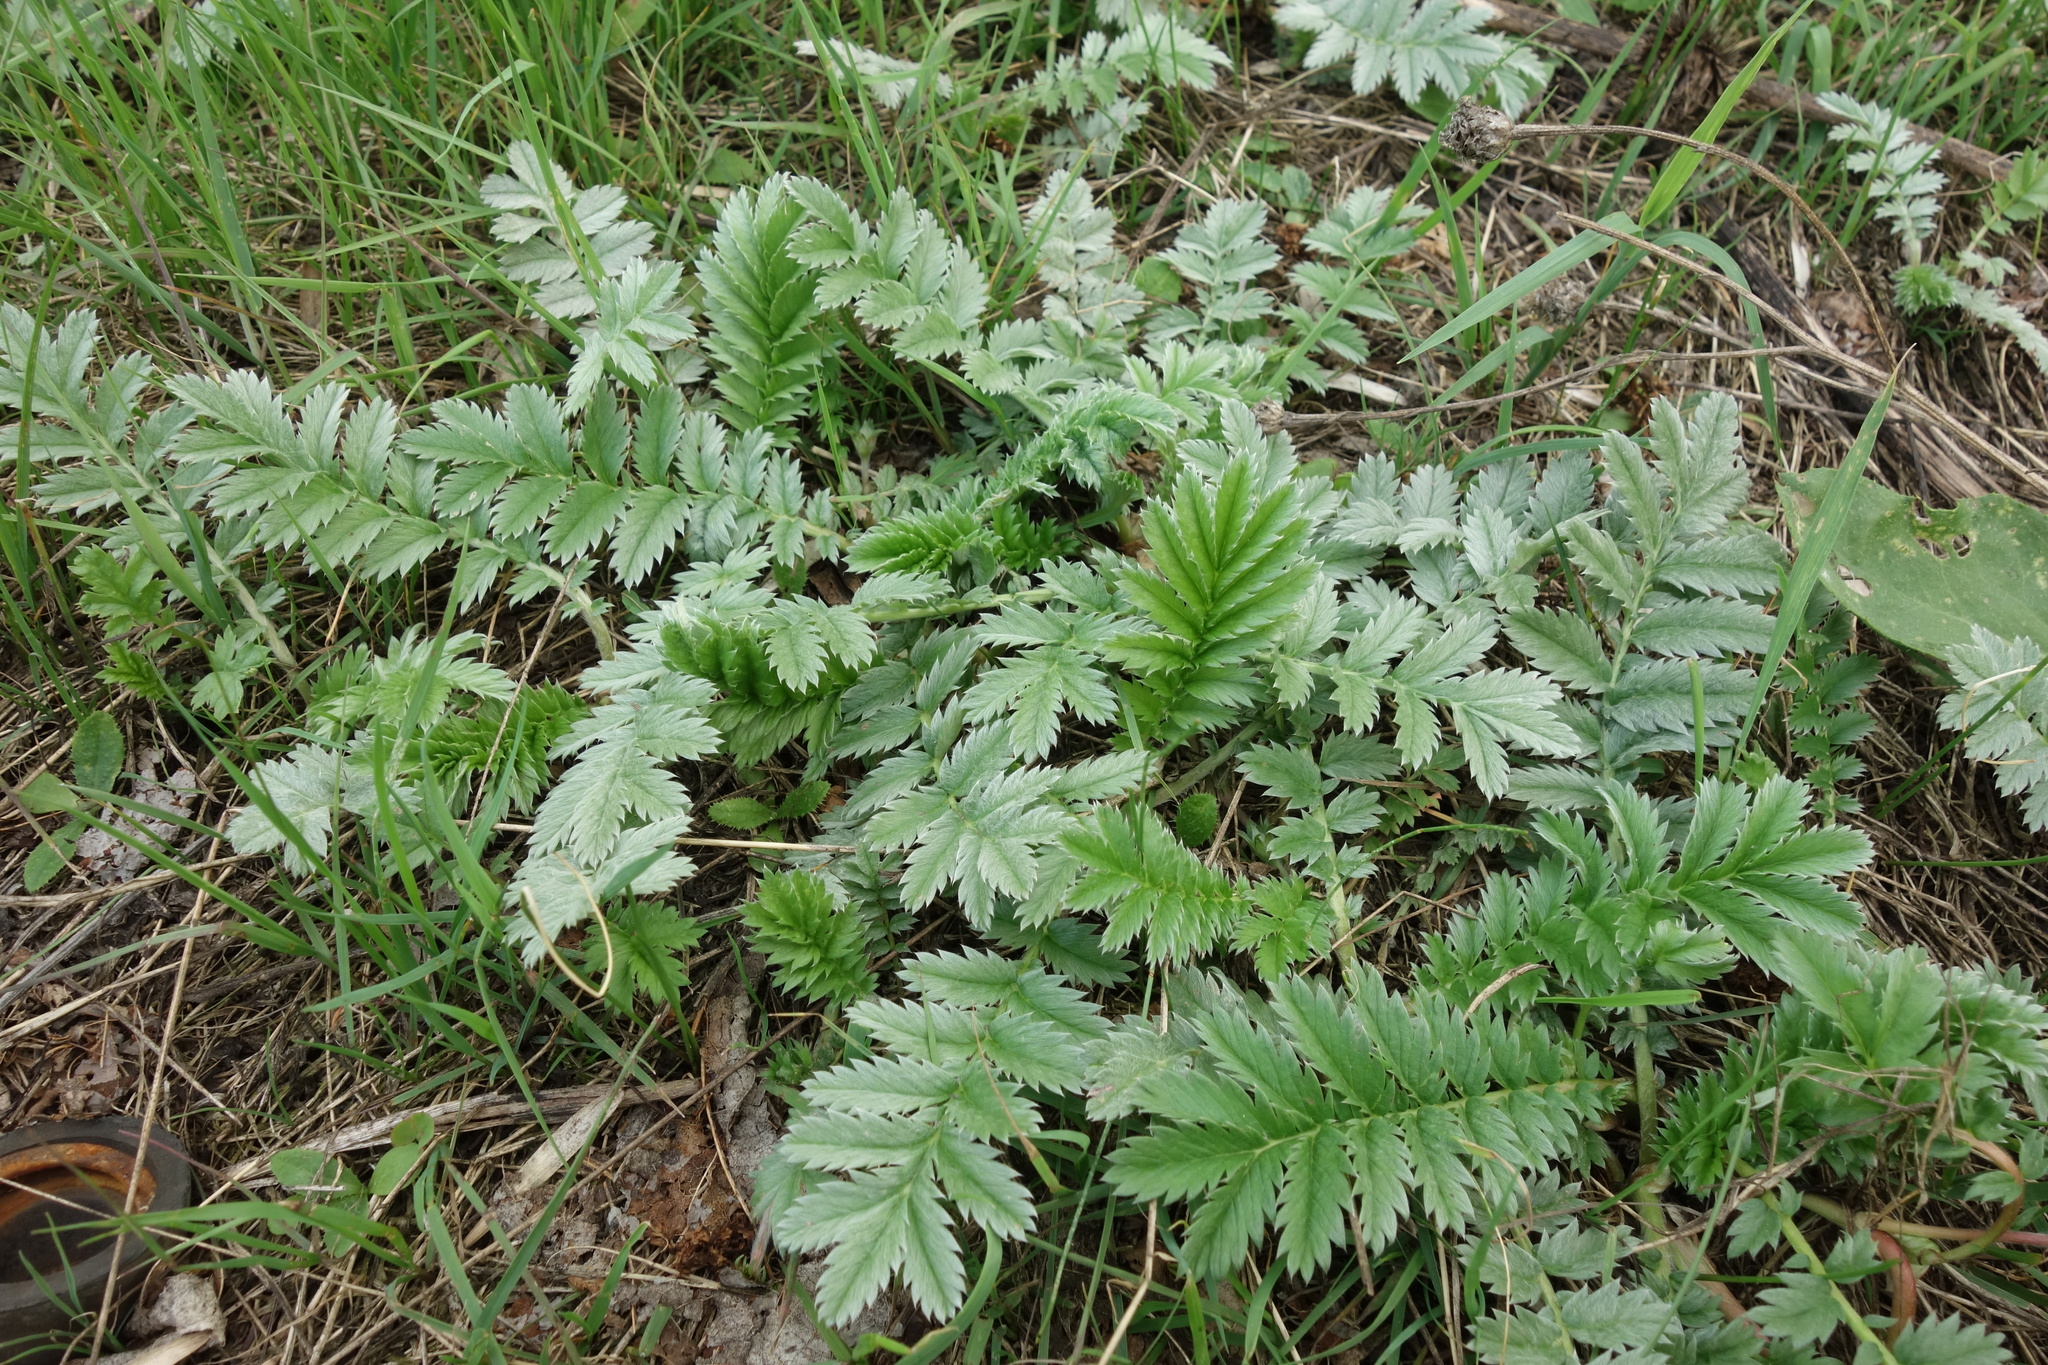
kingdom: Plantae
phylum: Tracheophyta
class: Magnoliopsida
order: Rosales
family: Rosaceae
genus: Argentina
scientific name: Argentina anserina
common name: Common silverweed
